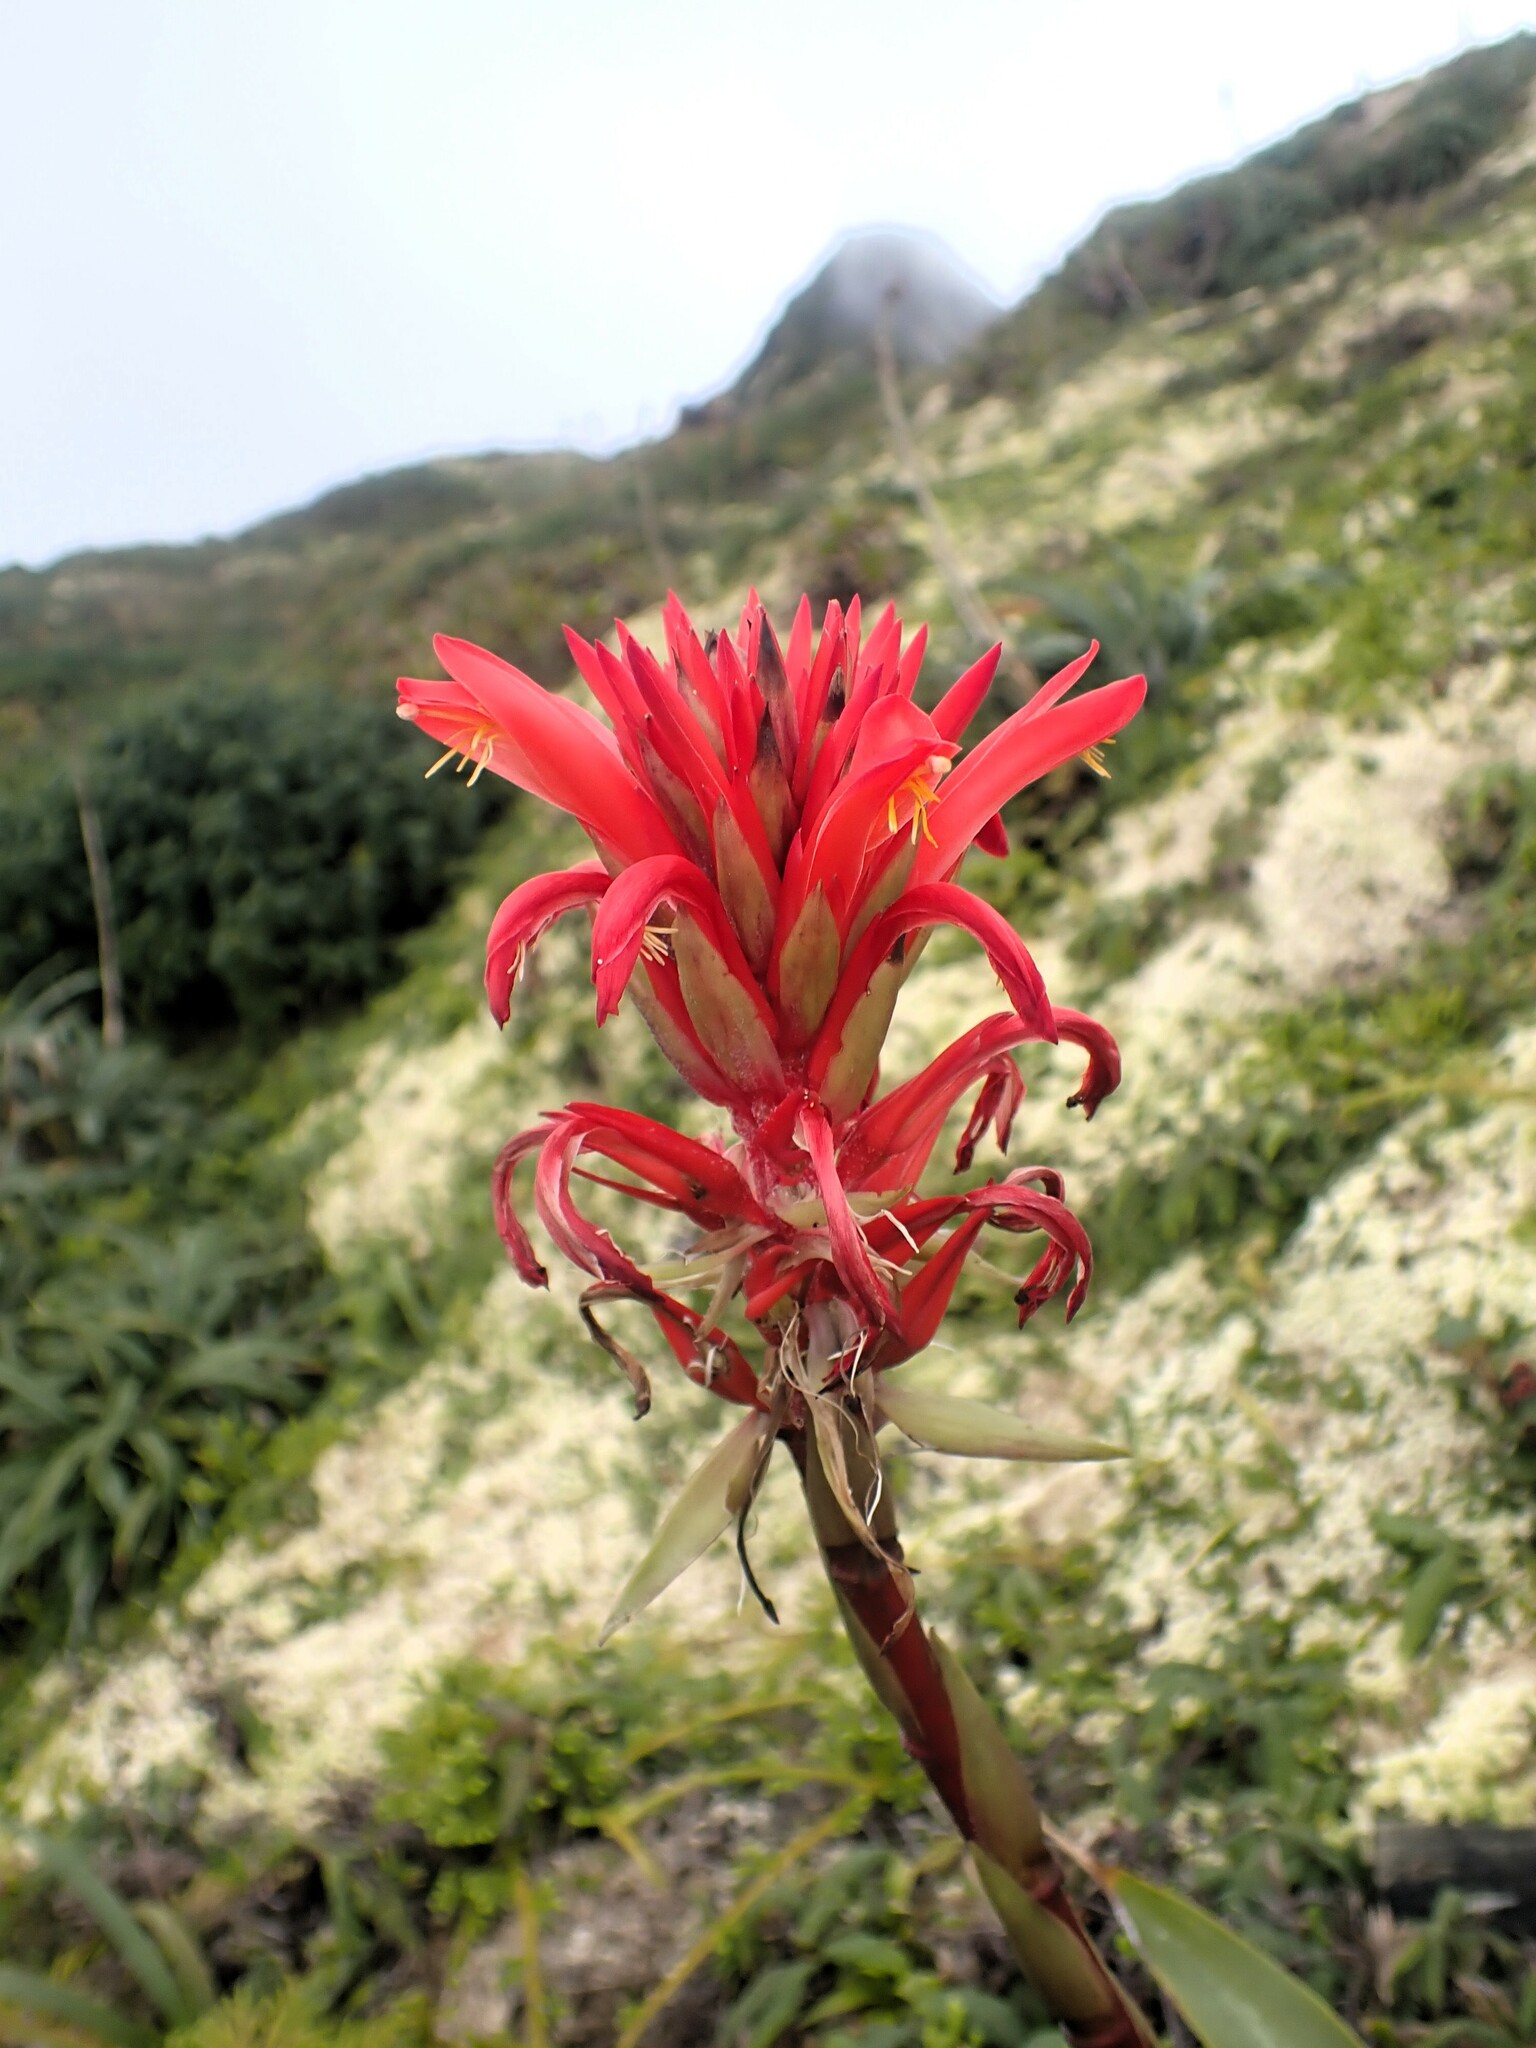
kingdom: Plantae
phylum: Tracheophyta
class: Liliopsida
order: Poales
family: Bromeliaceae
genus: Pitcairnia
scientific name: Pitcairnia bifrons
